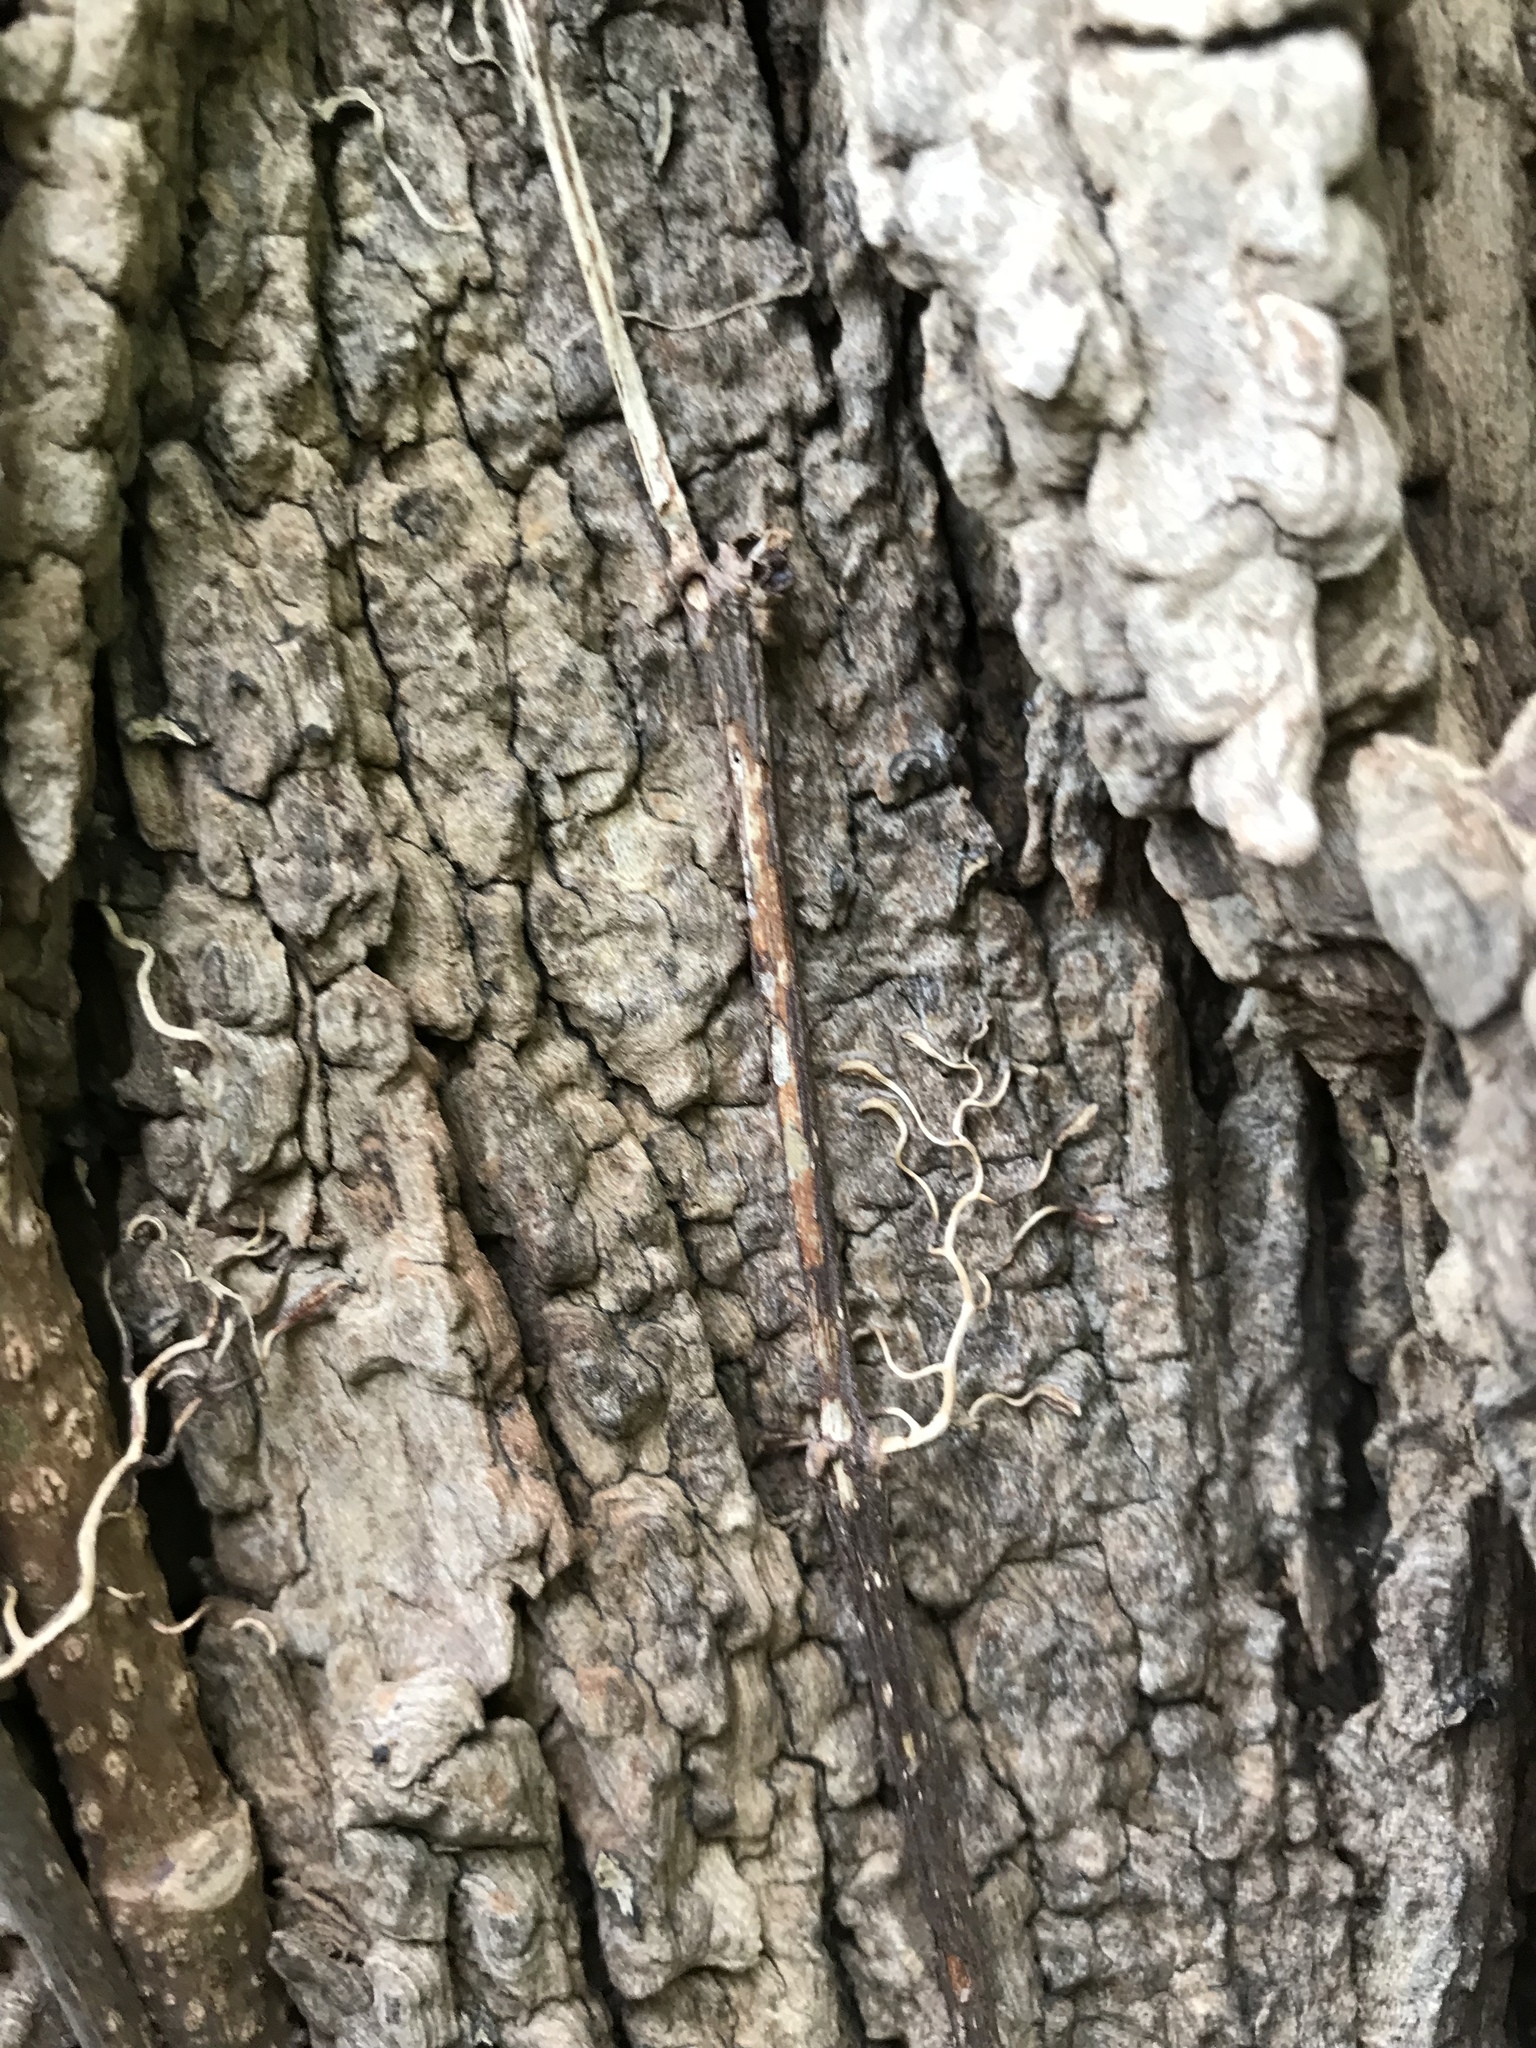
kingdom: Plantae
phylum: Tracheophyta
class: Magnoliopsida
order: Vitales
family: Vitaceae
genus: Parthenocissus
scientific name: Parthenocissus quinquefolia
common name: Virginia-creeper
